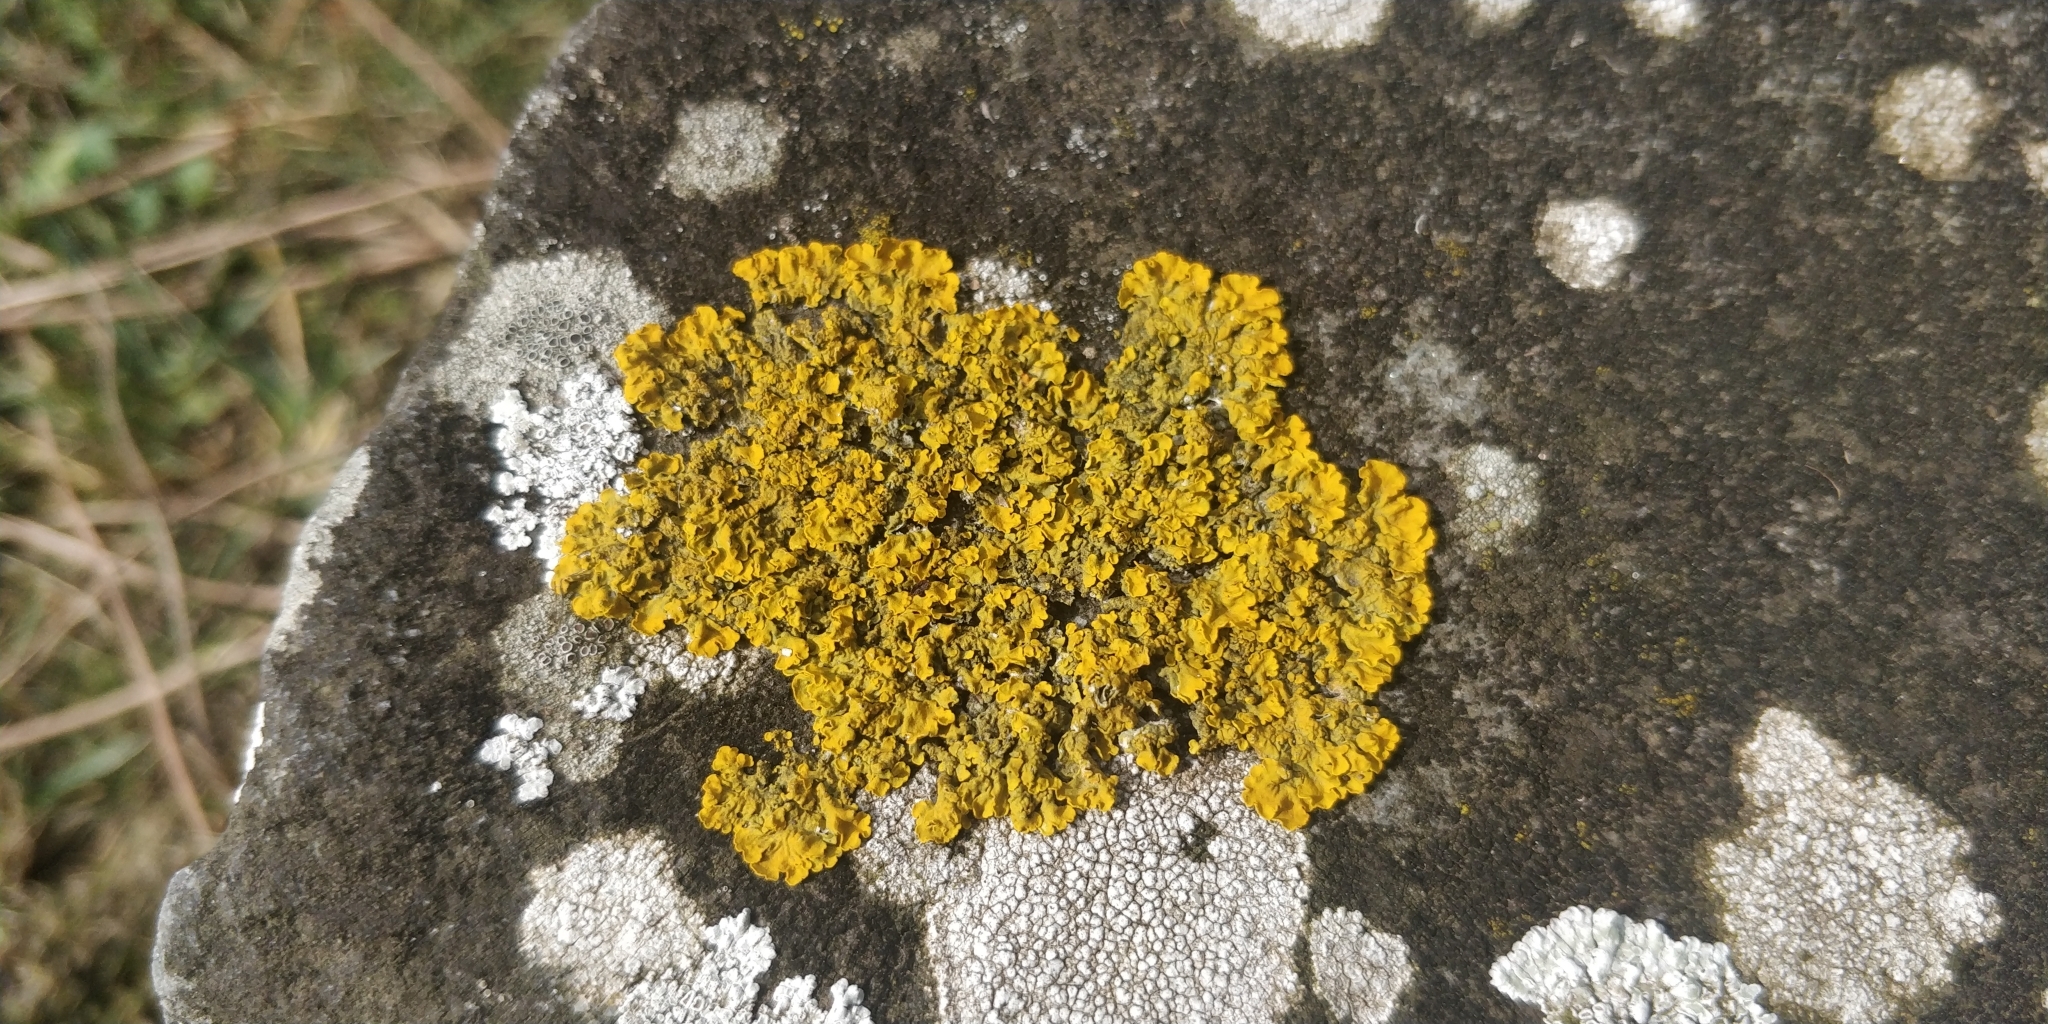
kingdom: Fungi
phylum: Ascomycota
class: Lecanoromycetes
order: Teloschistales
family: Teloschistaceae
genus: Xanthoria
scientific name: Xanthoria parietina
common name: Common orange lichen
